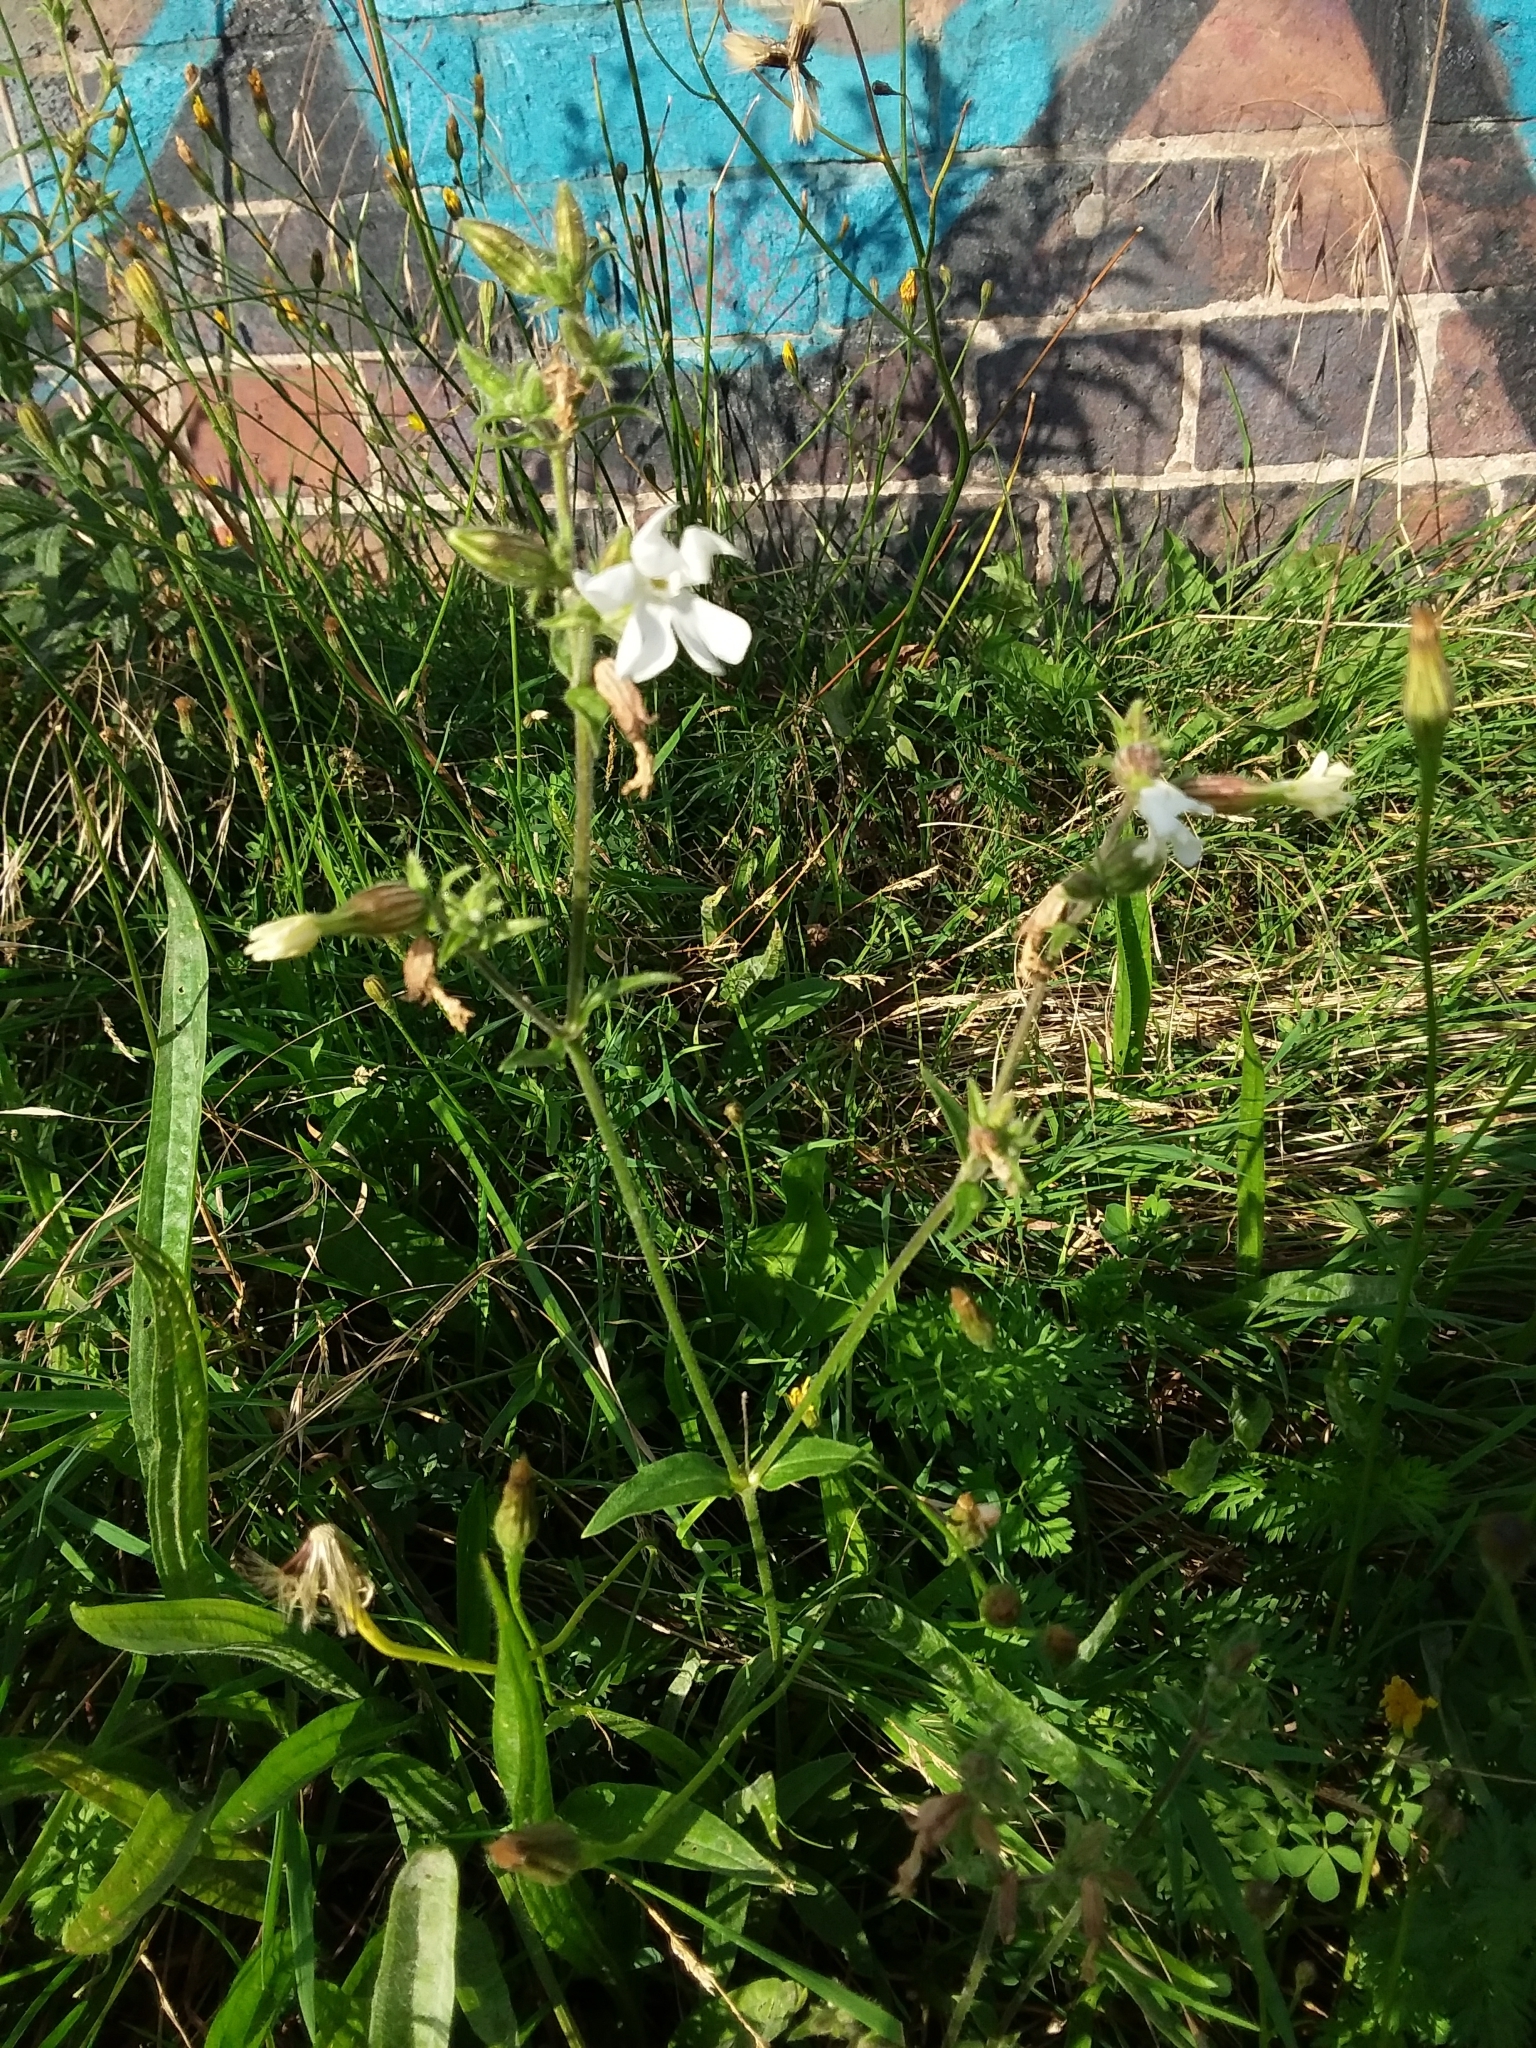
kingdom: Plantae
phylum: Tracheophyta
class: Magnoliopsida
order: Caryophyllales
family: Caryophyllaceae
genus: Silene
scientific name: Silene latifolia
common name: White campion
